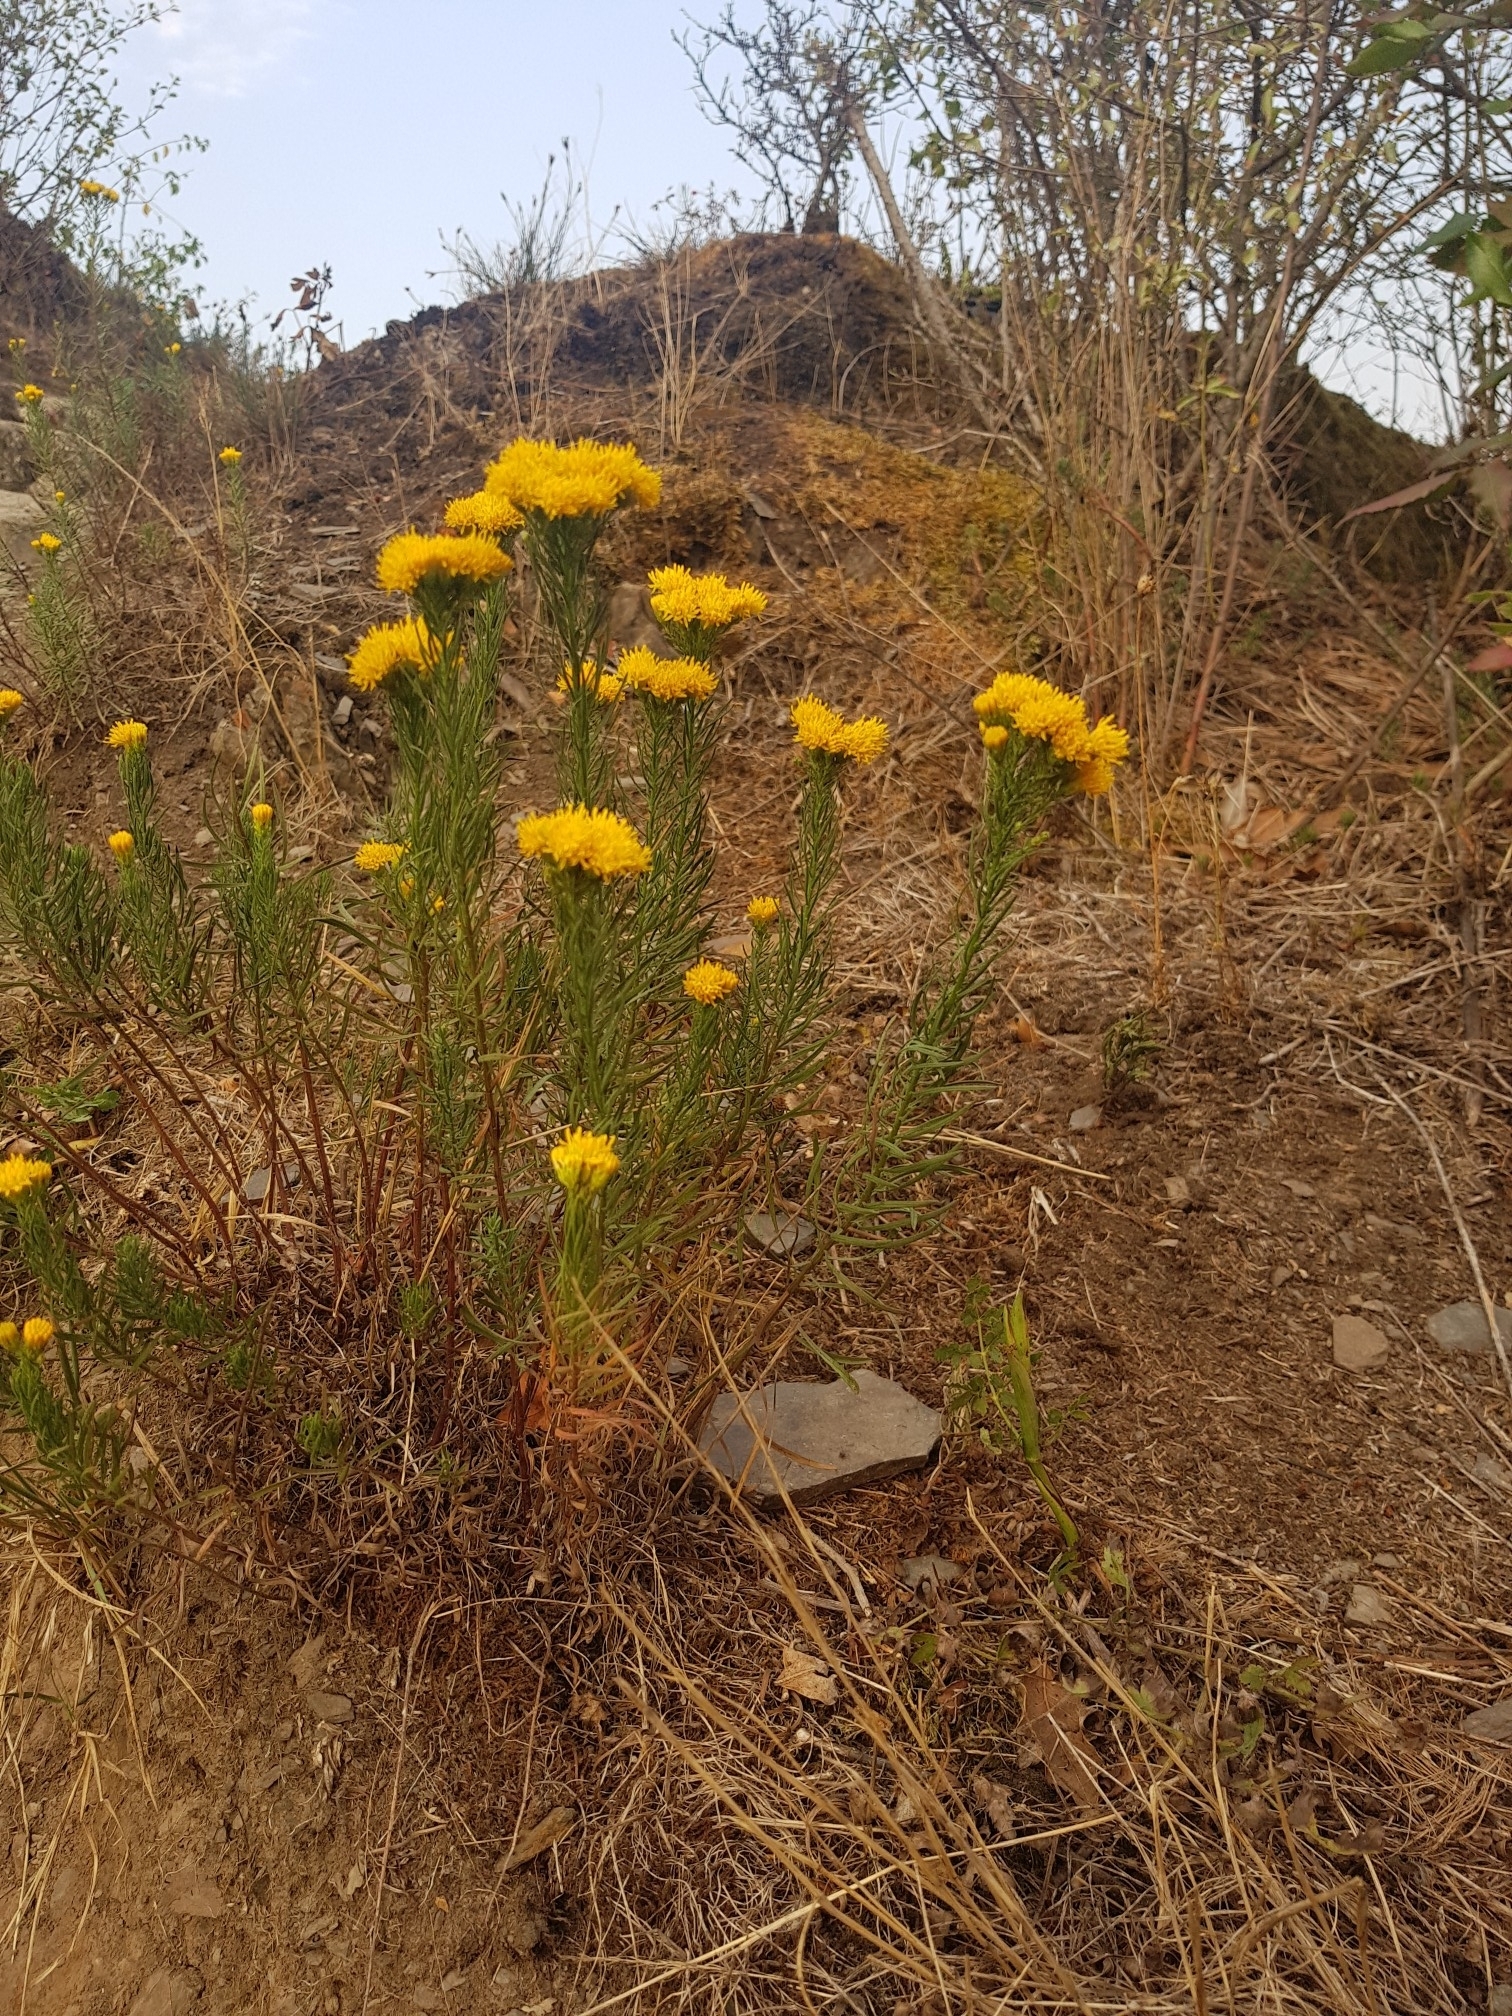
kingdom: Plantae
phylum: Tracheophyta
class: Magnoliopsida
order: Asterales
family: Asteraceae
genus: Galatella
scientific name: Galatella linosyris
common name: Goldilocks aster
